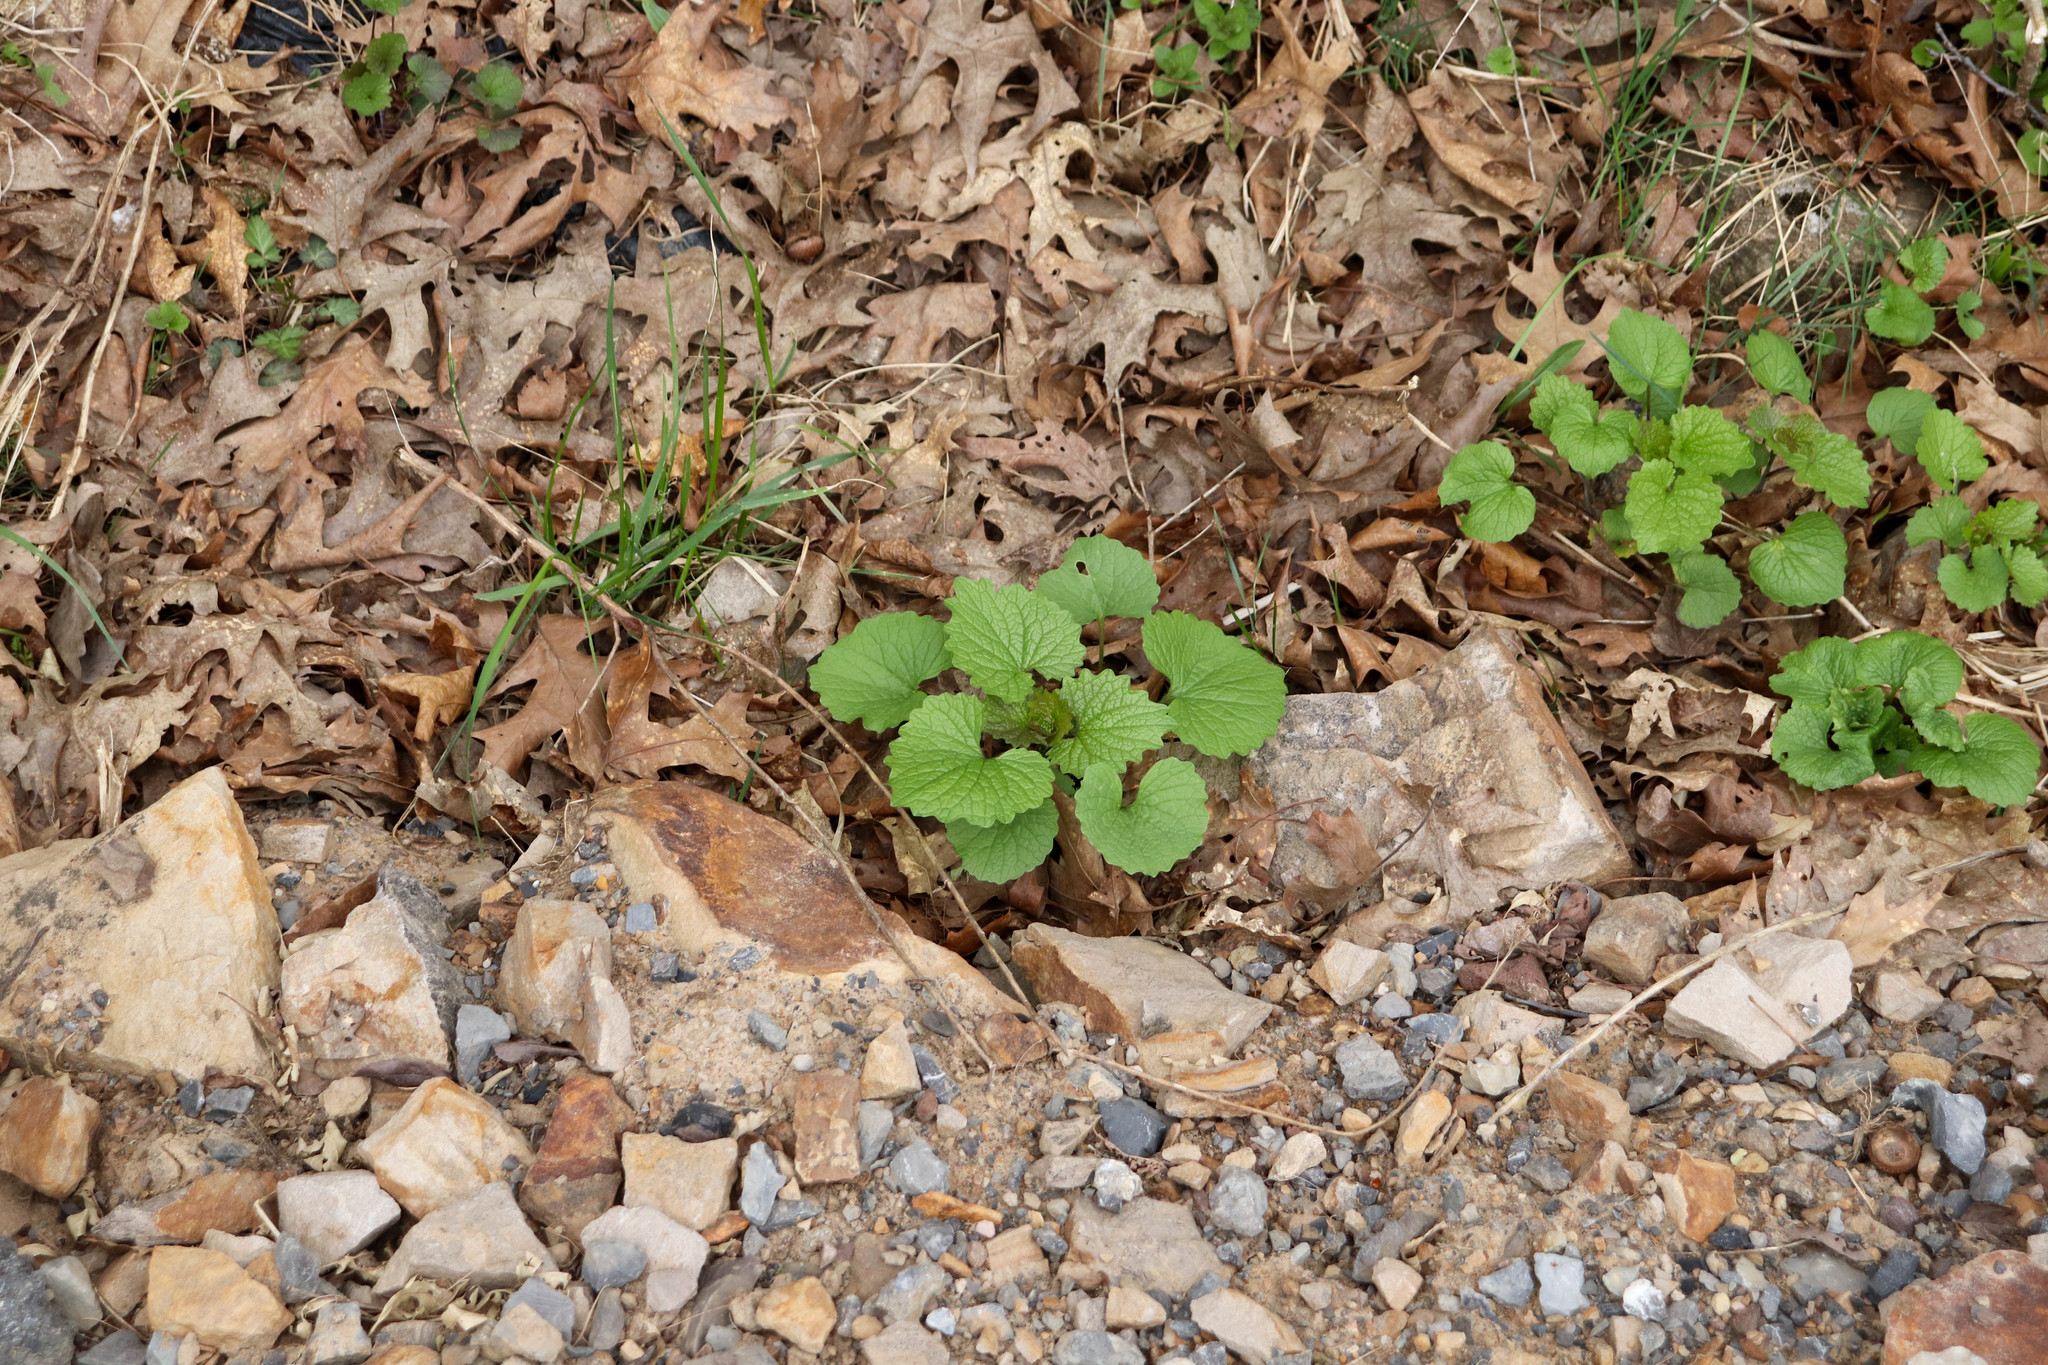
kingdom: Plantae
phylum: Tracheophyta
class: Magnoliopsida
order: Brassicales
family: Brassicaceae
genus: Alliaria
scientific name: Alliaria petiolata
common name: Garlic mustard
